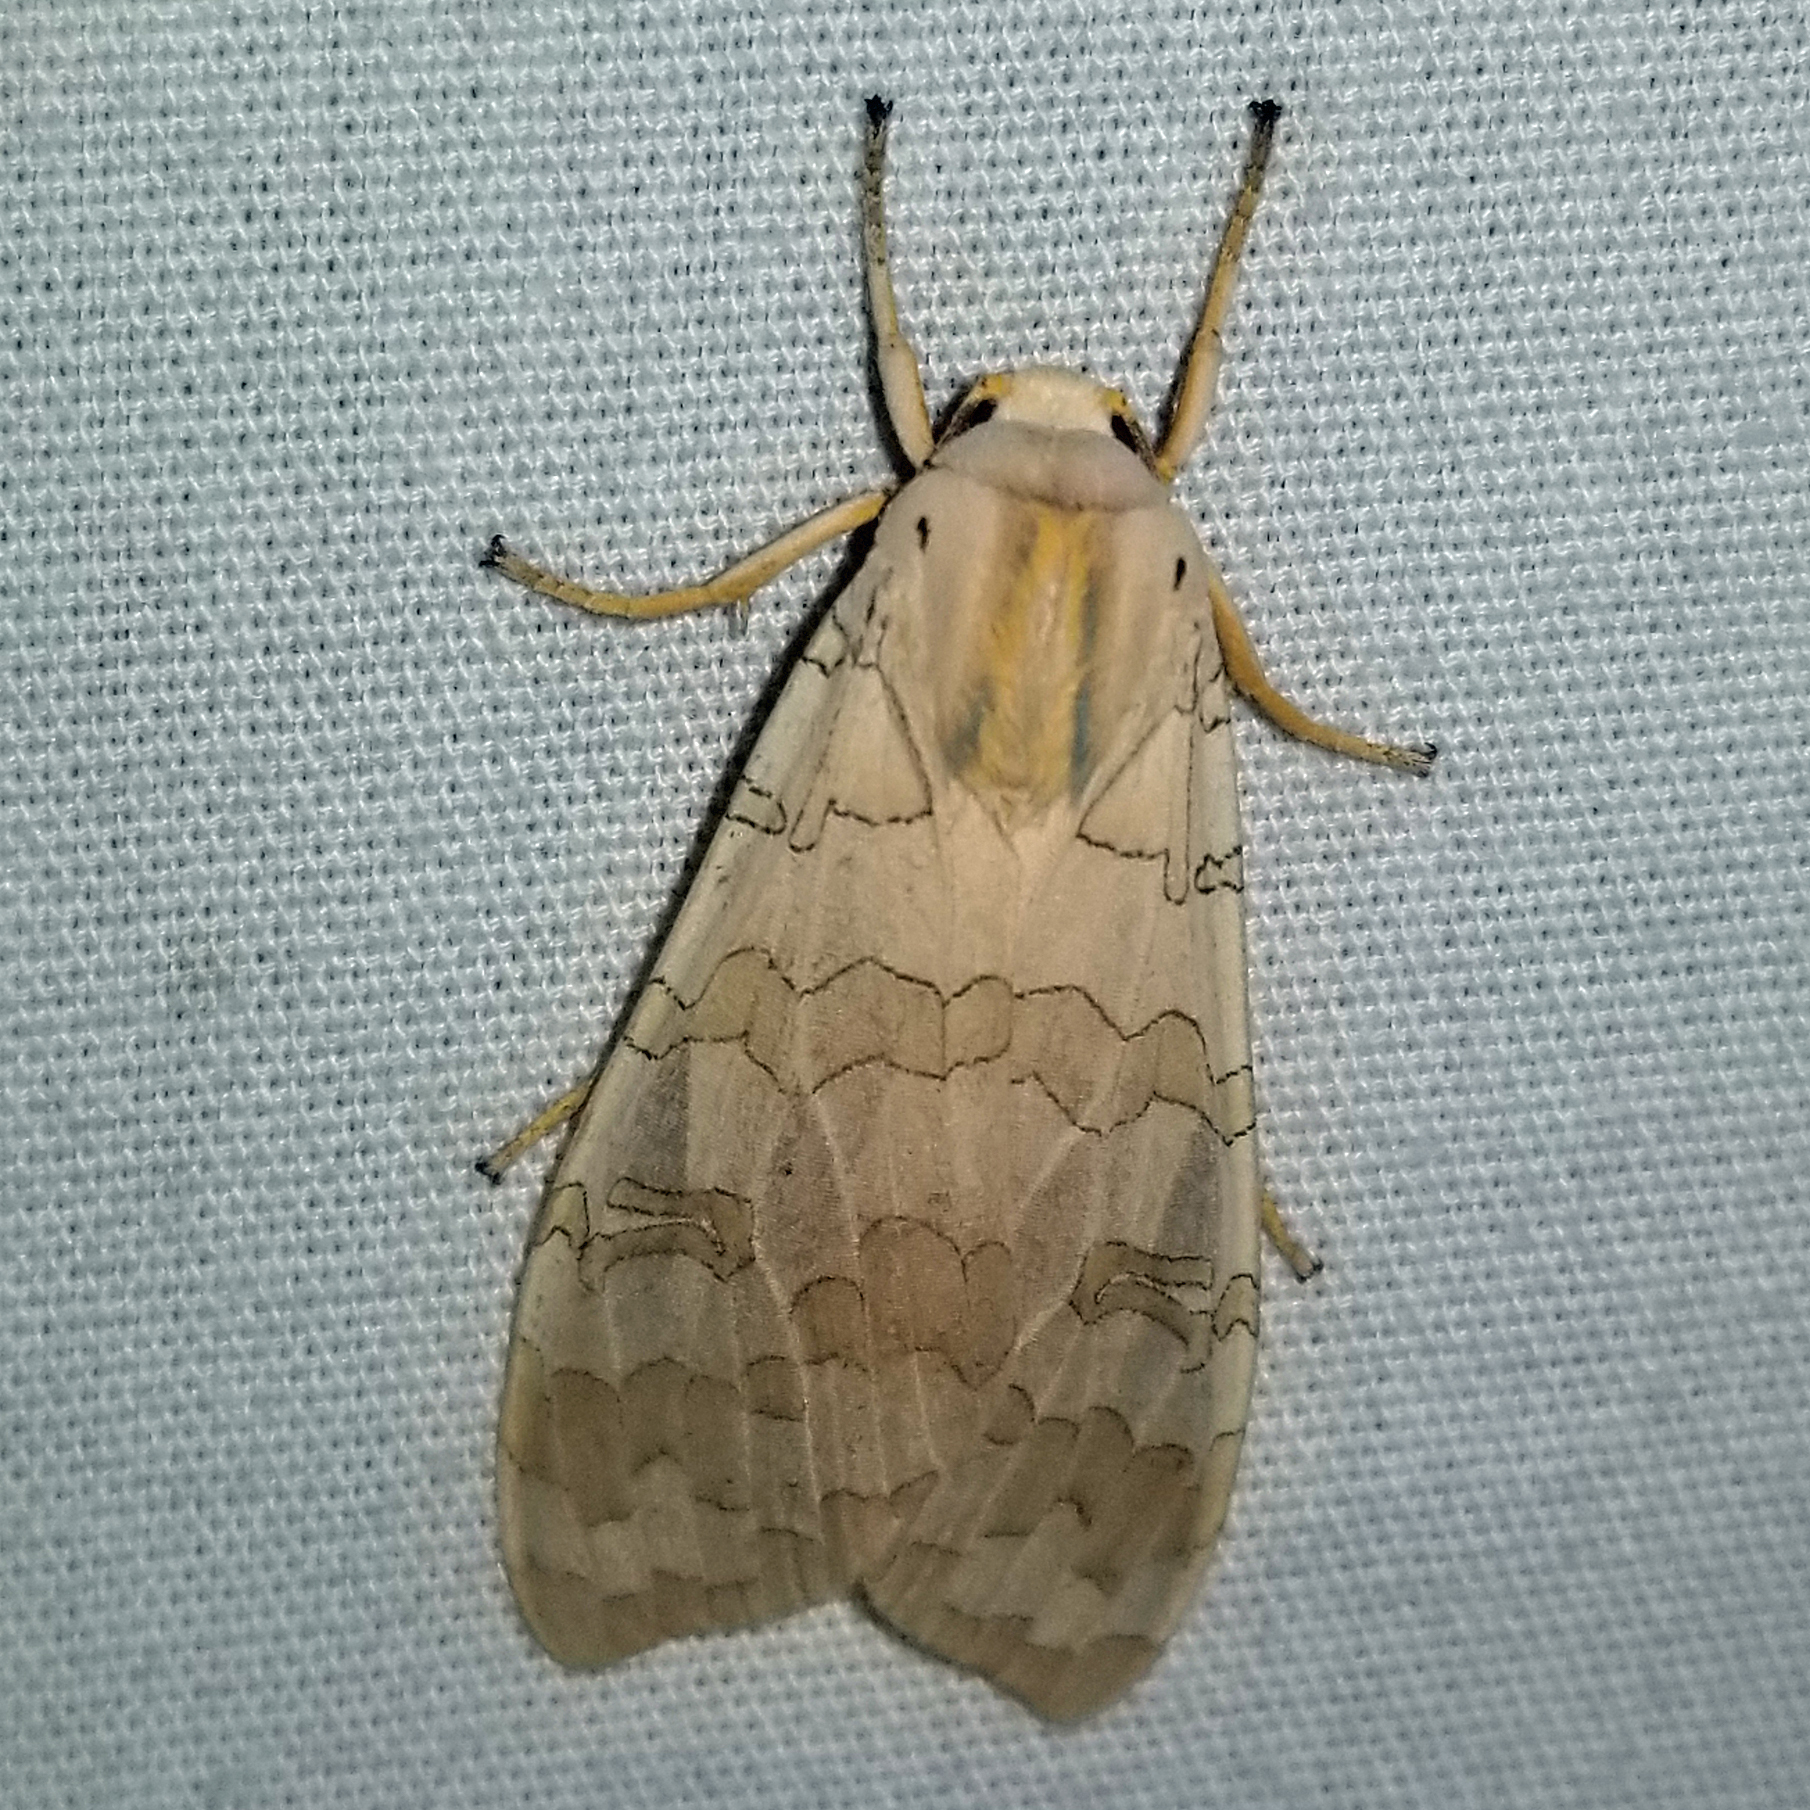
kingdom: Animalia
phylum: Arthropoda
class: Insecta
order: Lepidoptera
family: Erebidae
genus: Halysidota
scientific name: Halysidota
